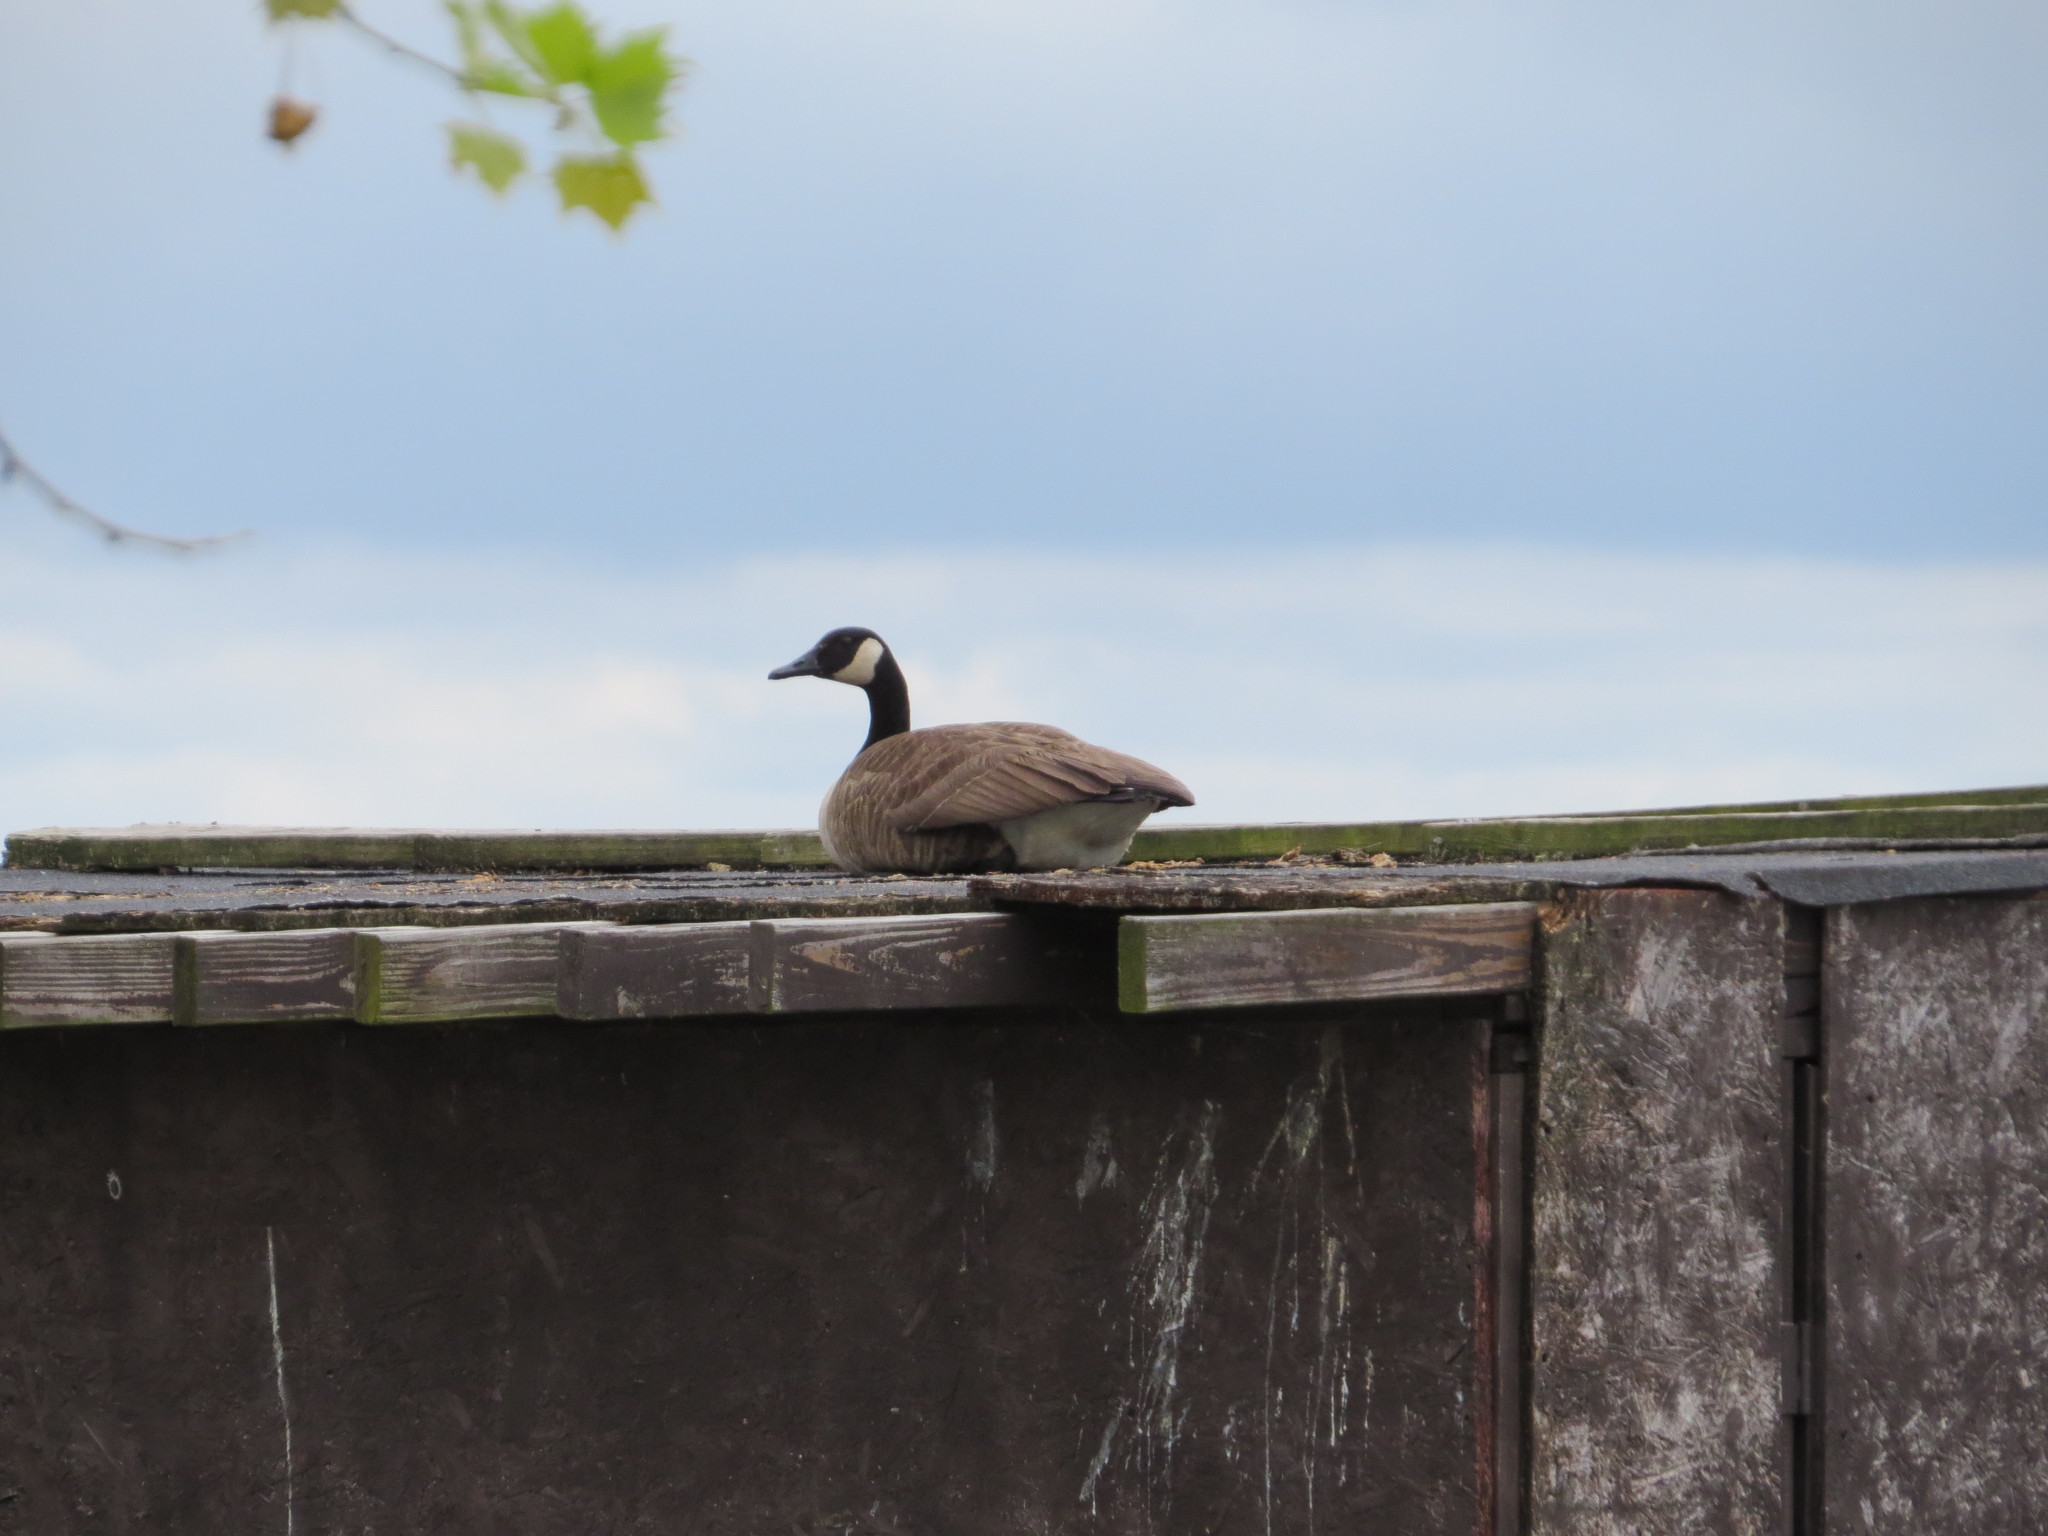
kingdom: Animalia
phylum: Chordata
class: Aves
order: Anseriformes
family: Anatidae
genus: Branta
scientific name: Branta canadensis
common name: Canada goose
